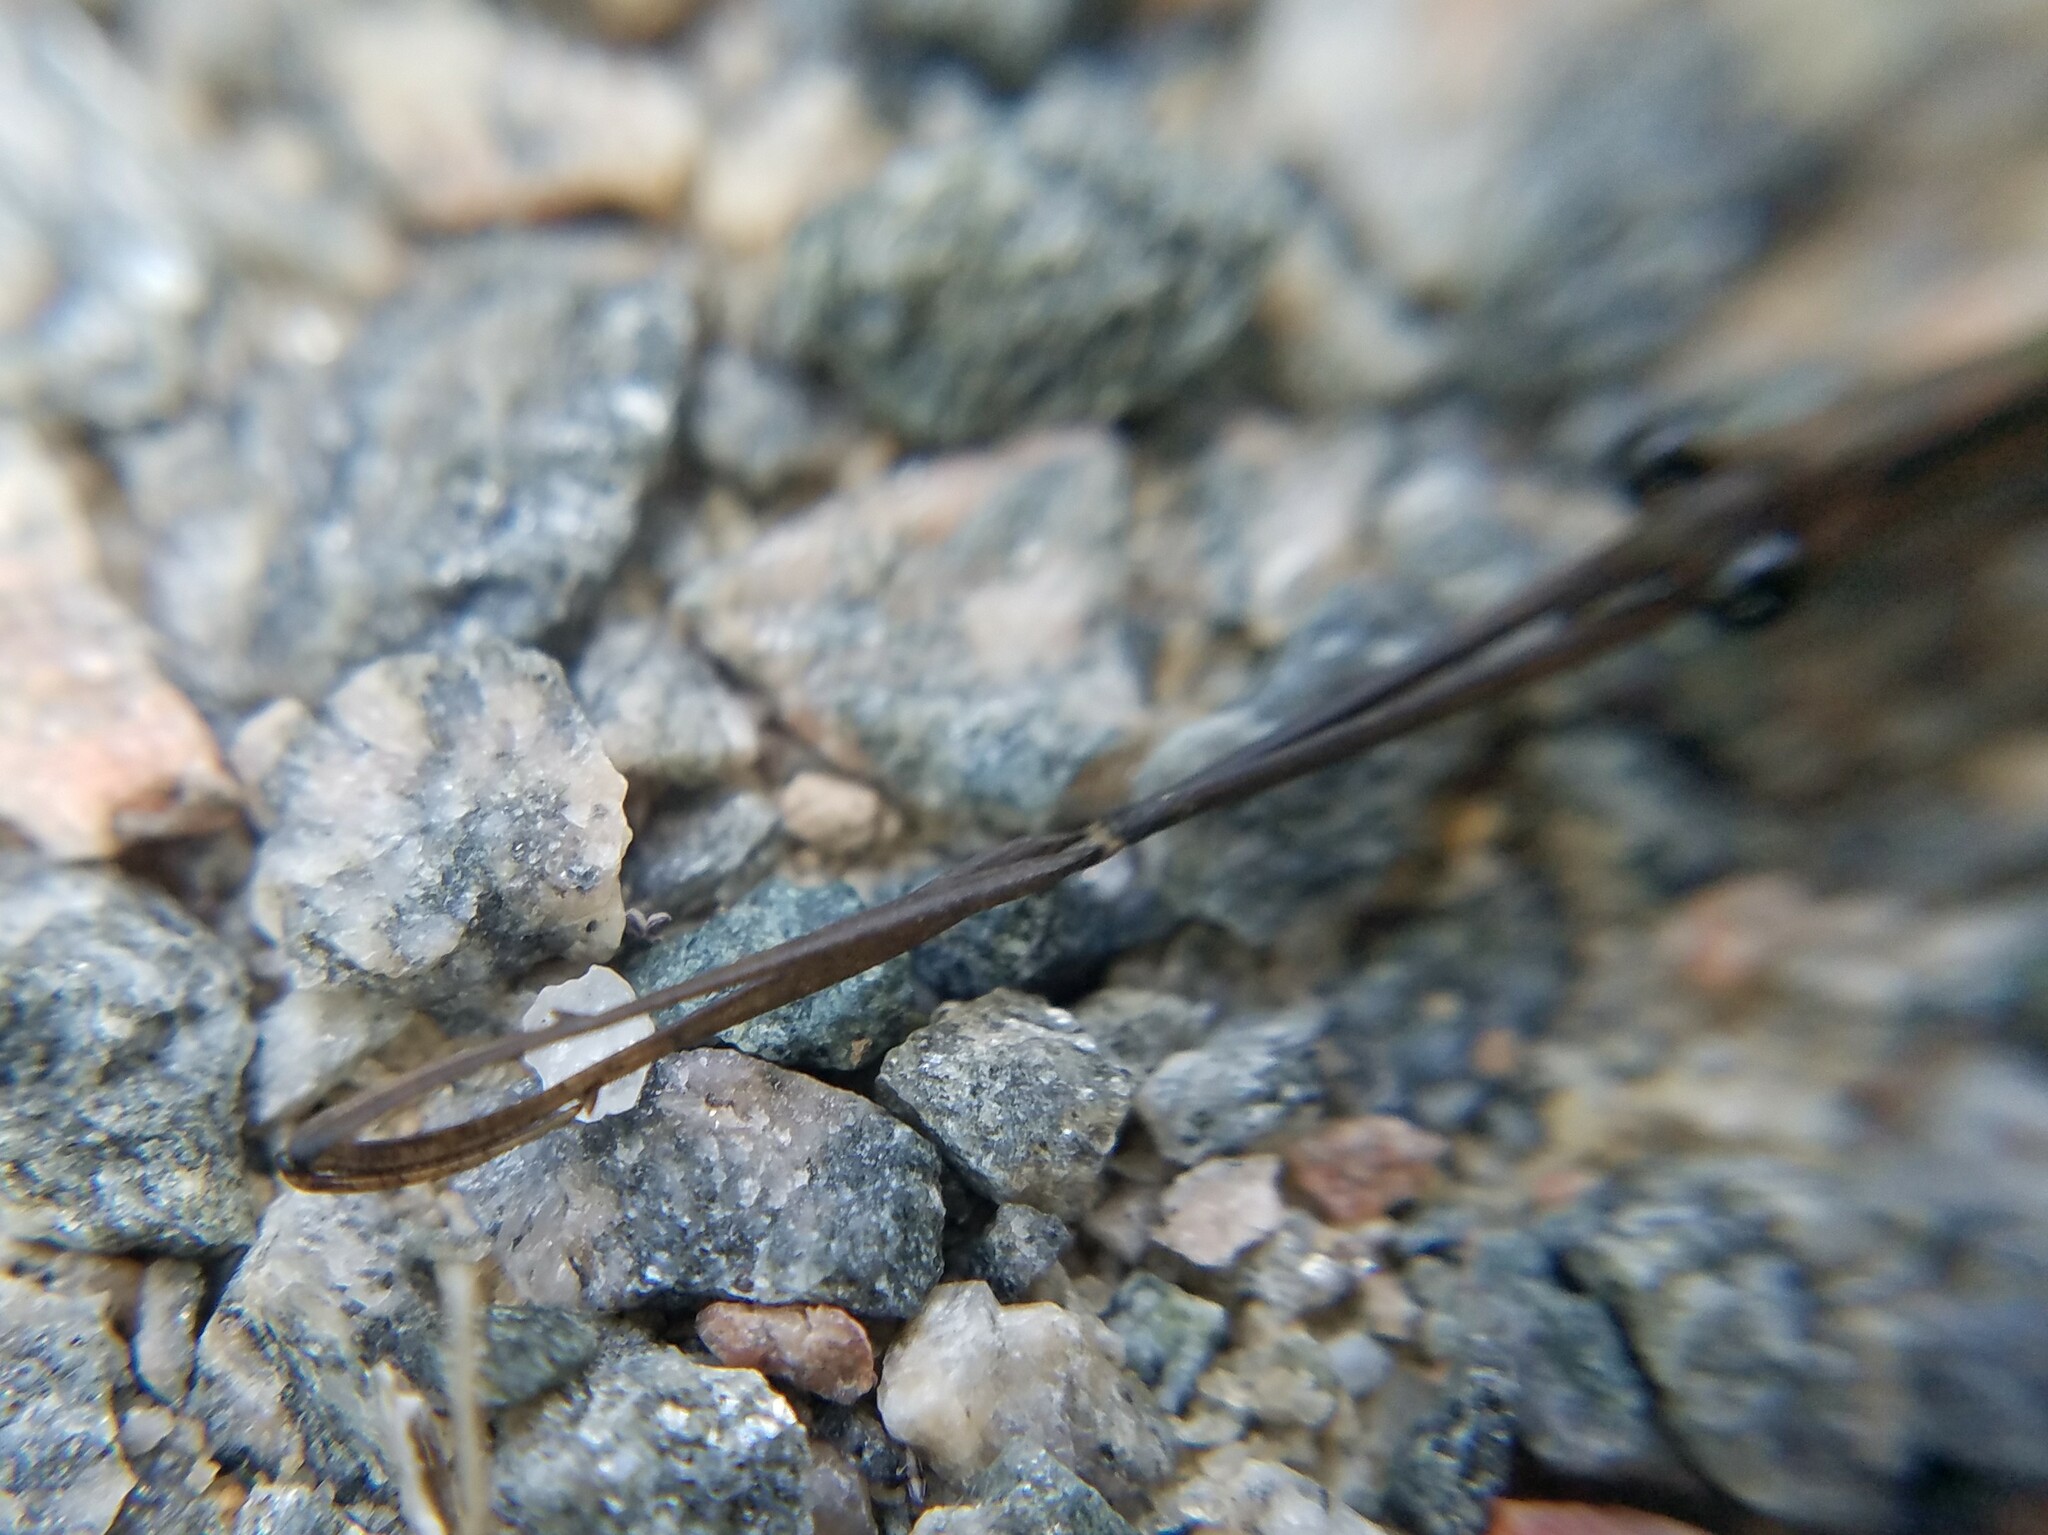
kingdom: Animalia
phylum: Arthropoda
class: Insecta
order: Hemiptera
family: Nepidae
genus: Ranatra
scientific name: Ranatra
